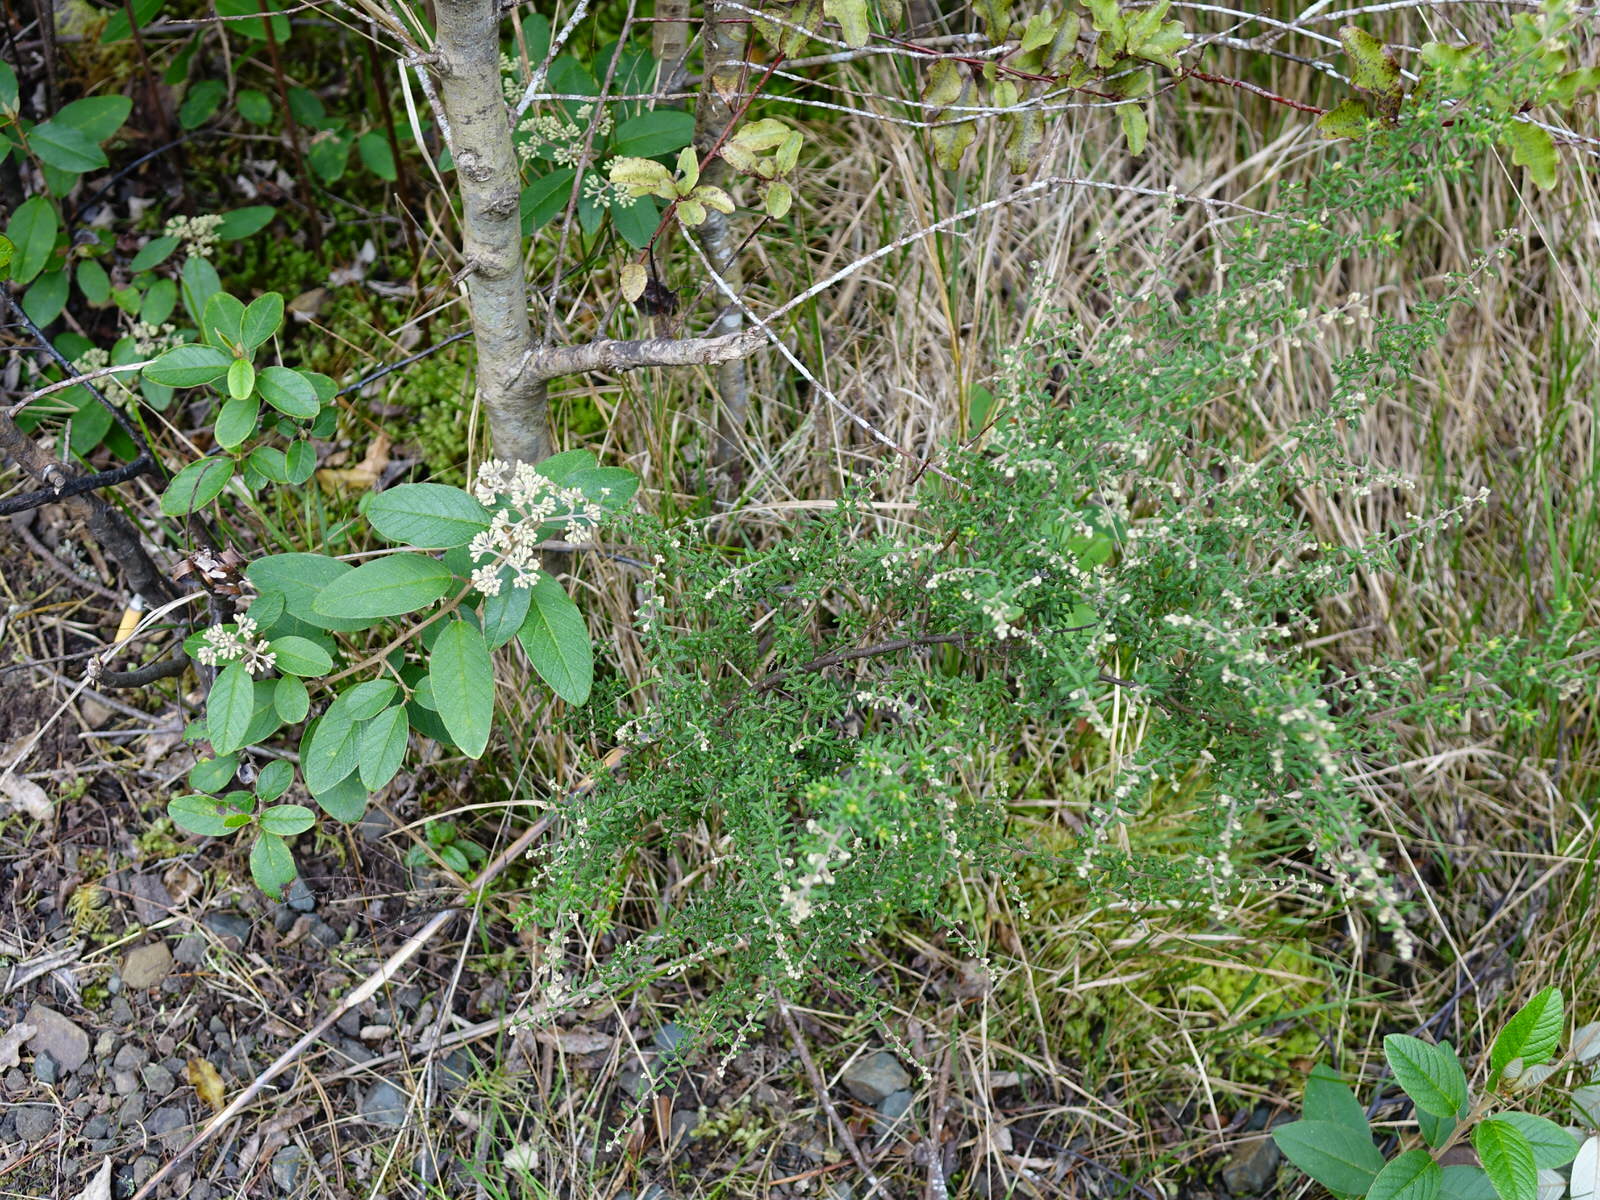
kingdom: Plantae
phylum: Tracheophyta
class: Magnoliopsida
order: Rosales
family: Rhamnaceae
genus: Pomaderris
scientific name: Pomaderris amoena
